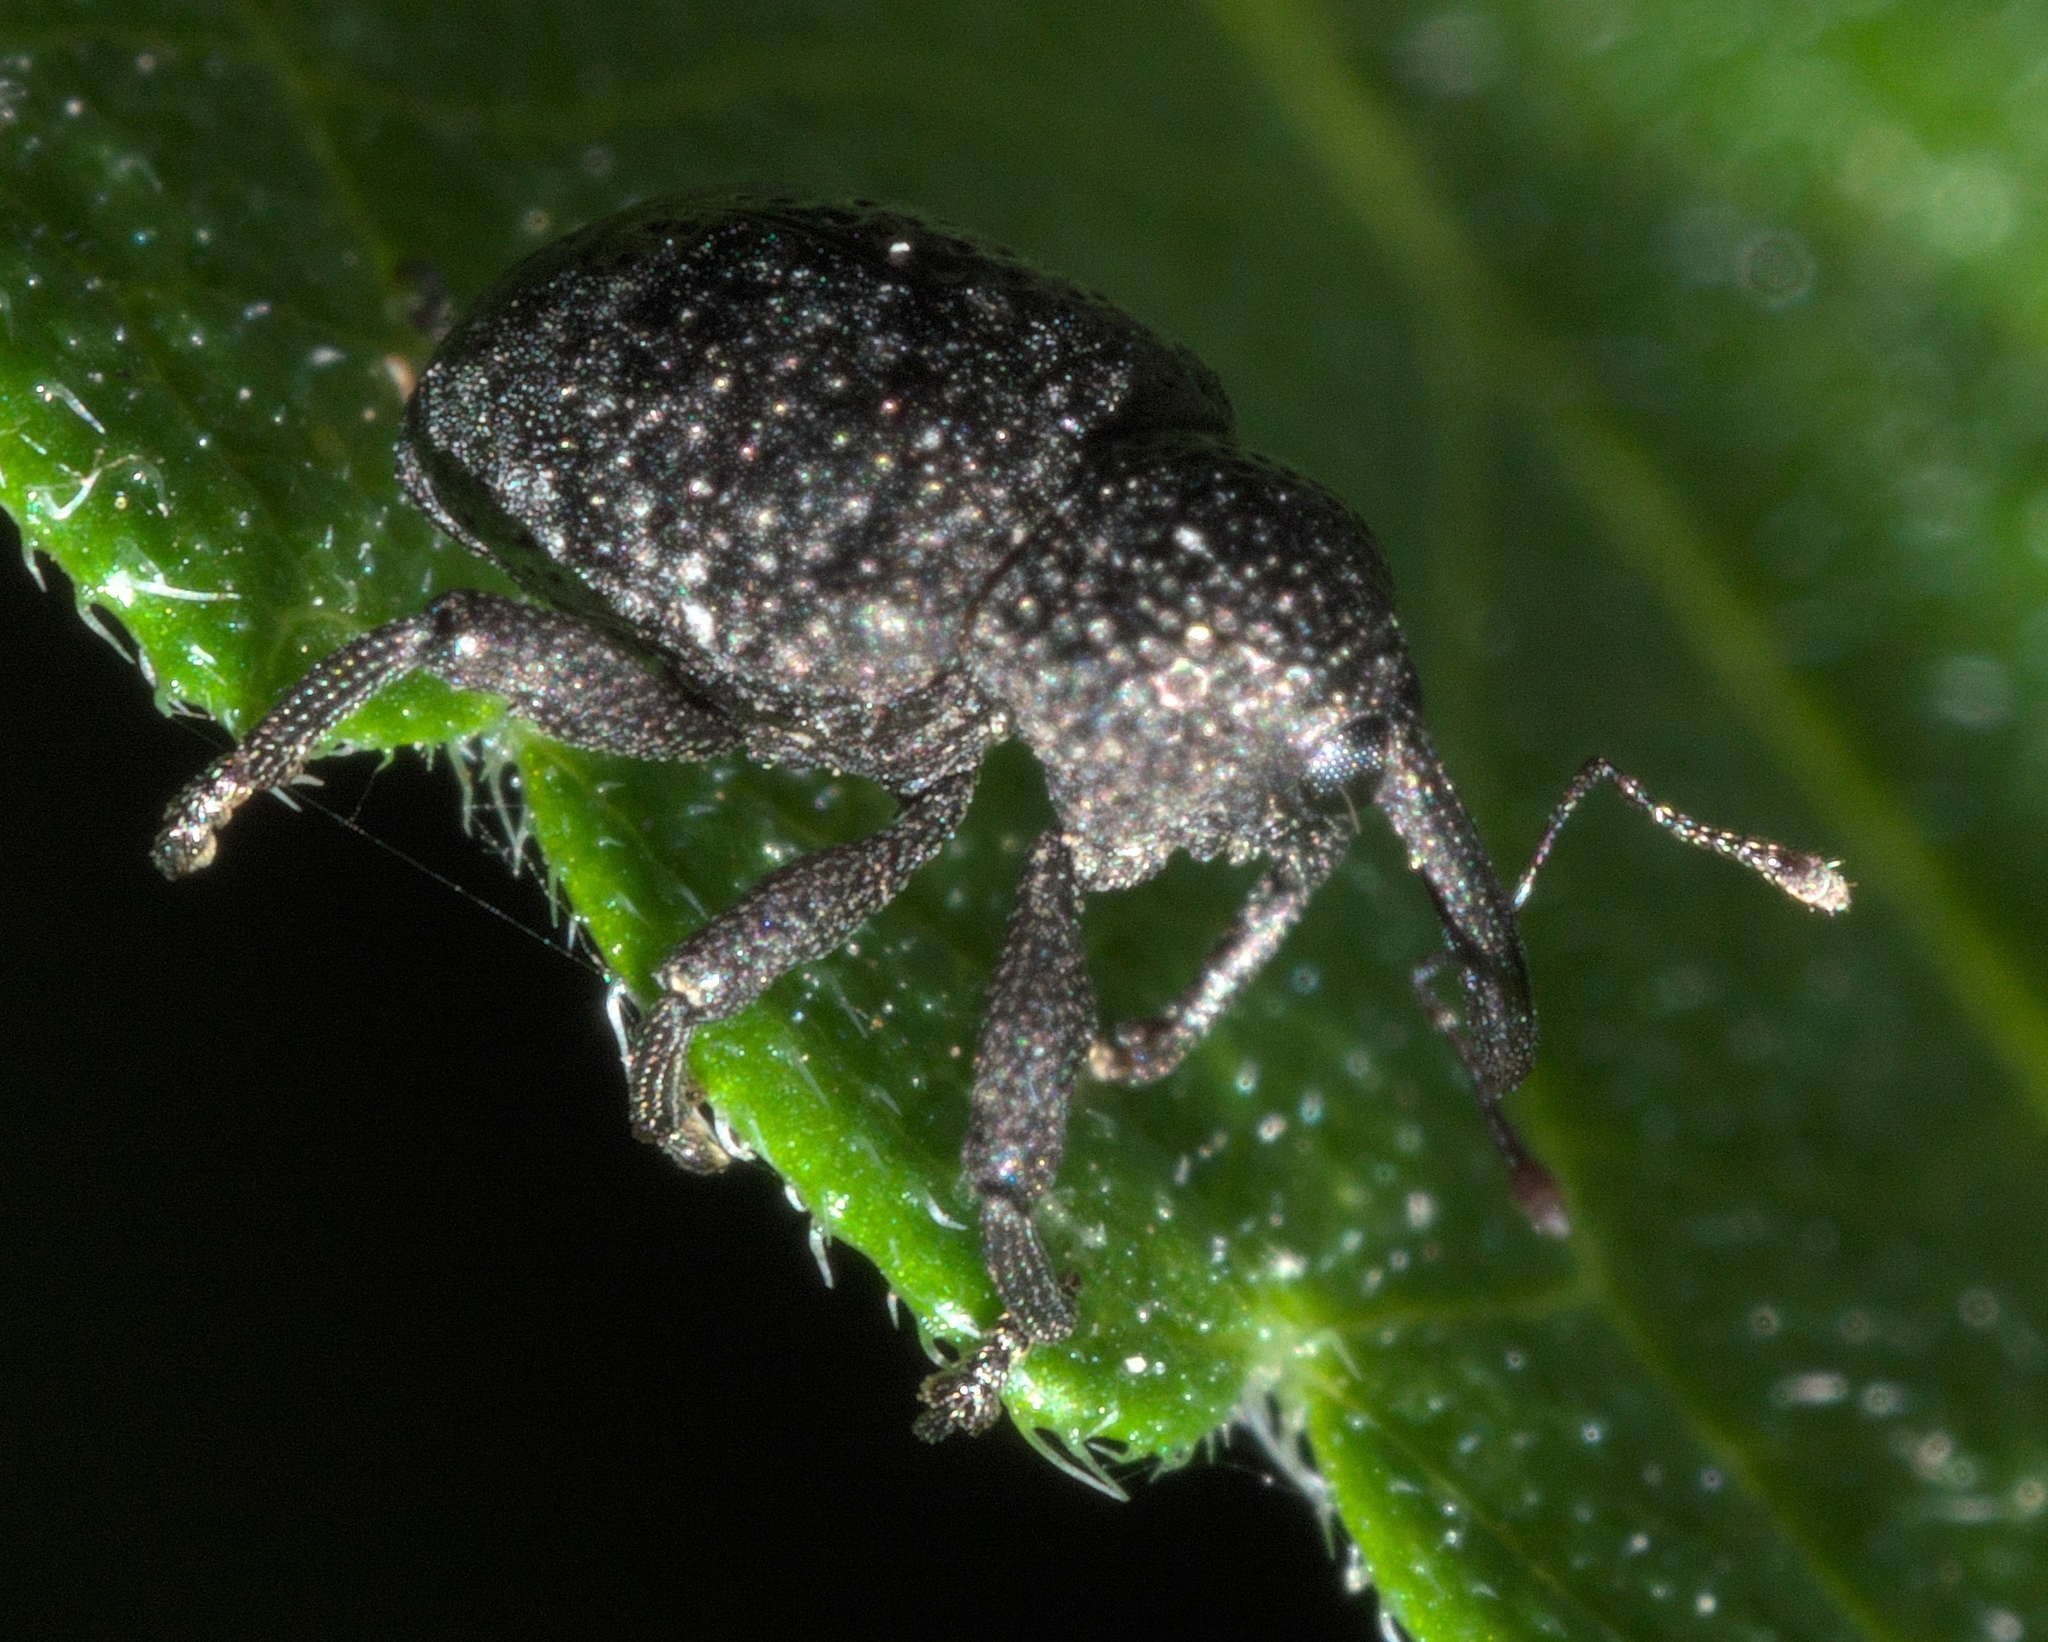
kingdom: Animalia
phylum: Arthropoda
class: Insecta
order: Coleoptera
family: Curculionidae
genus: Chalcodermus
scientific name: Chalcodermus aeneus
